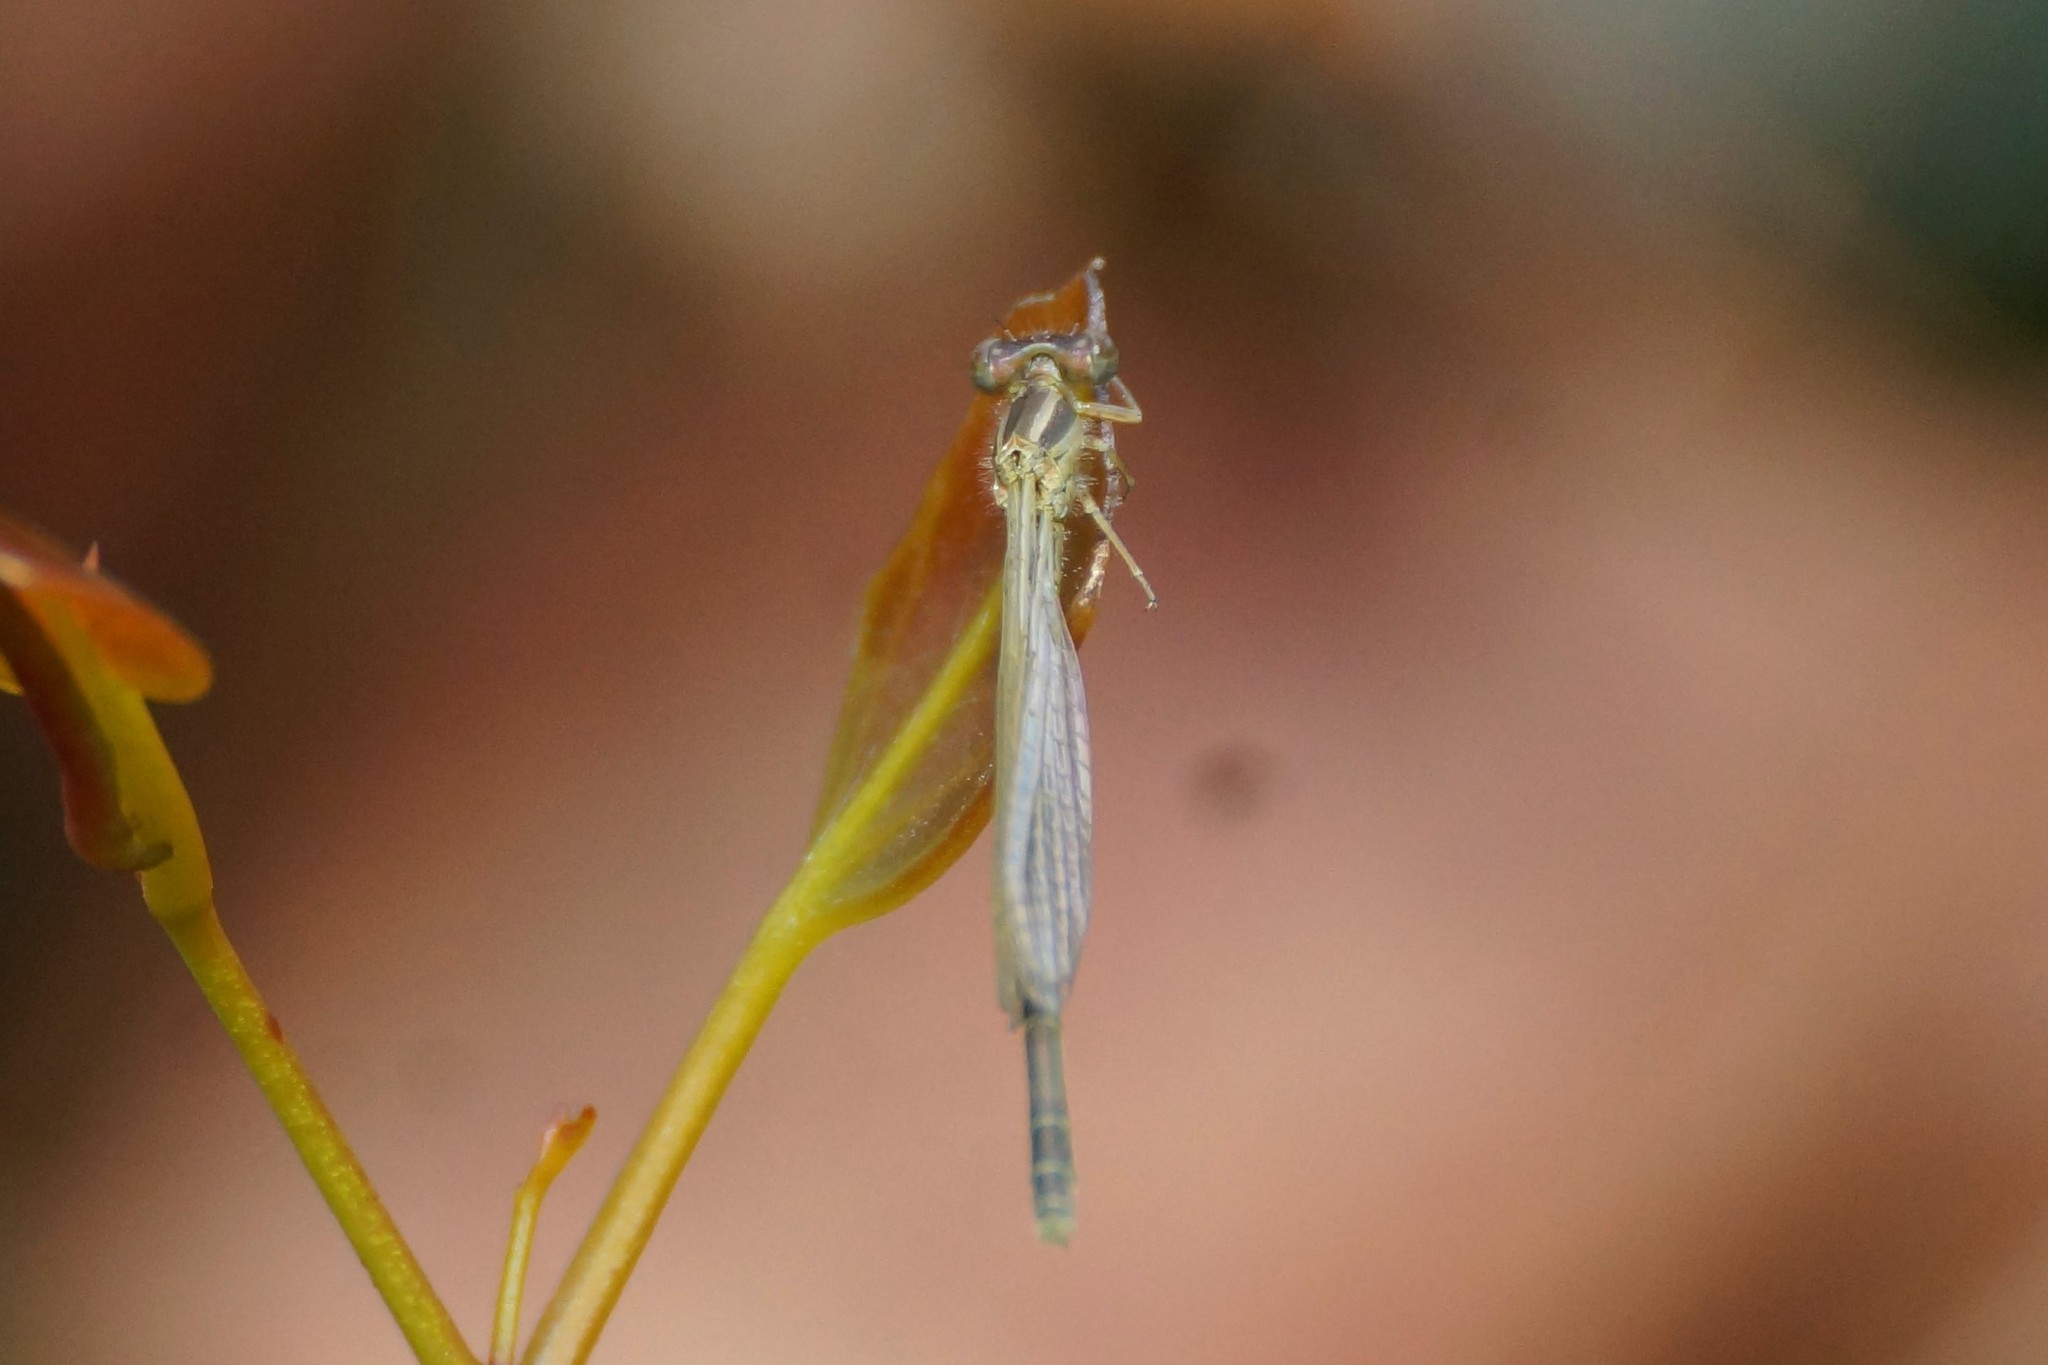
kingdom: Animalia
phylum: Arthropoda
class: Insecta
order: Odonata
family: Coenagrionidae
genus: Ischnura
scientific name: Ischnura aurora
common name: Gossamer damselfly
